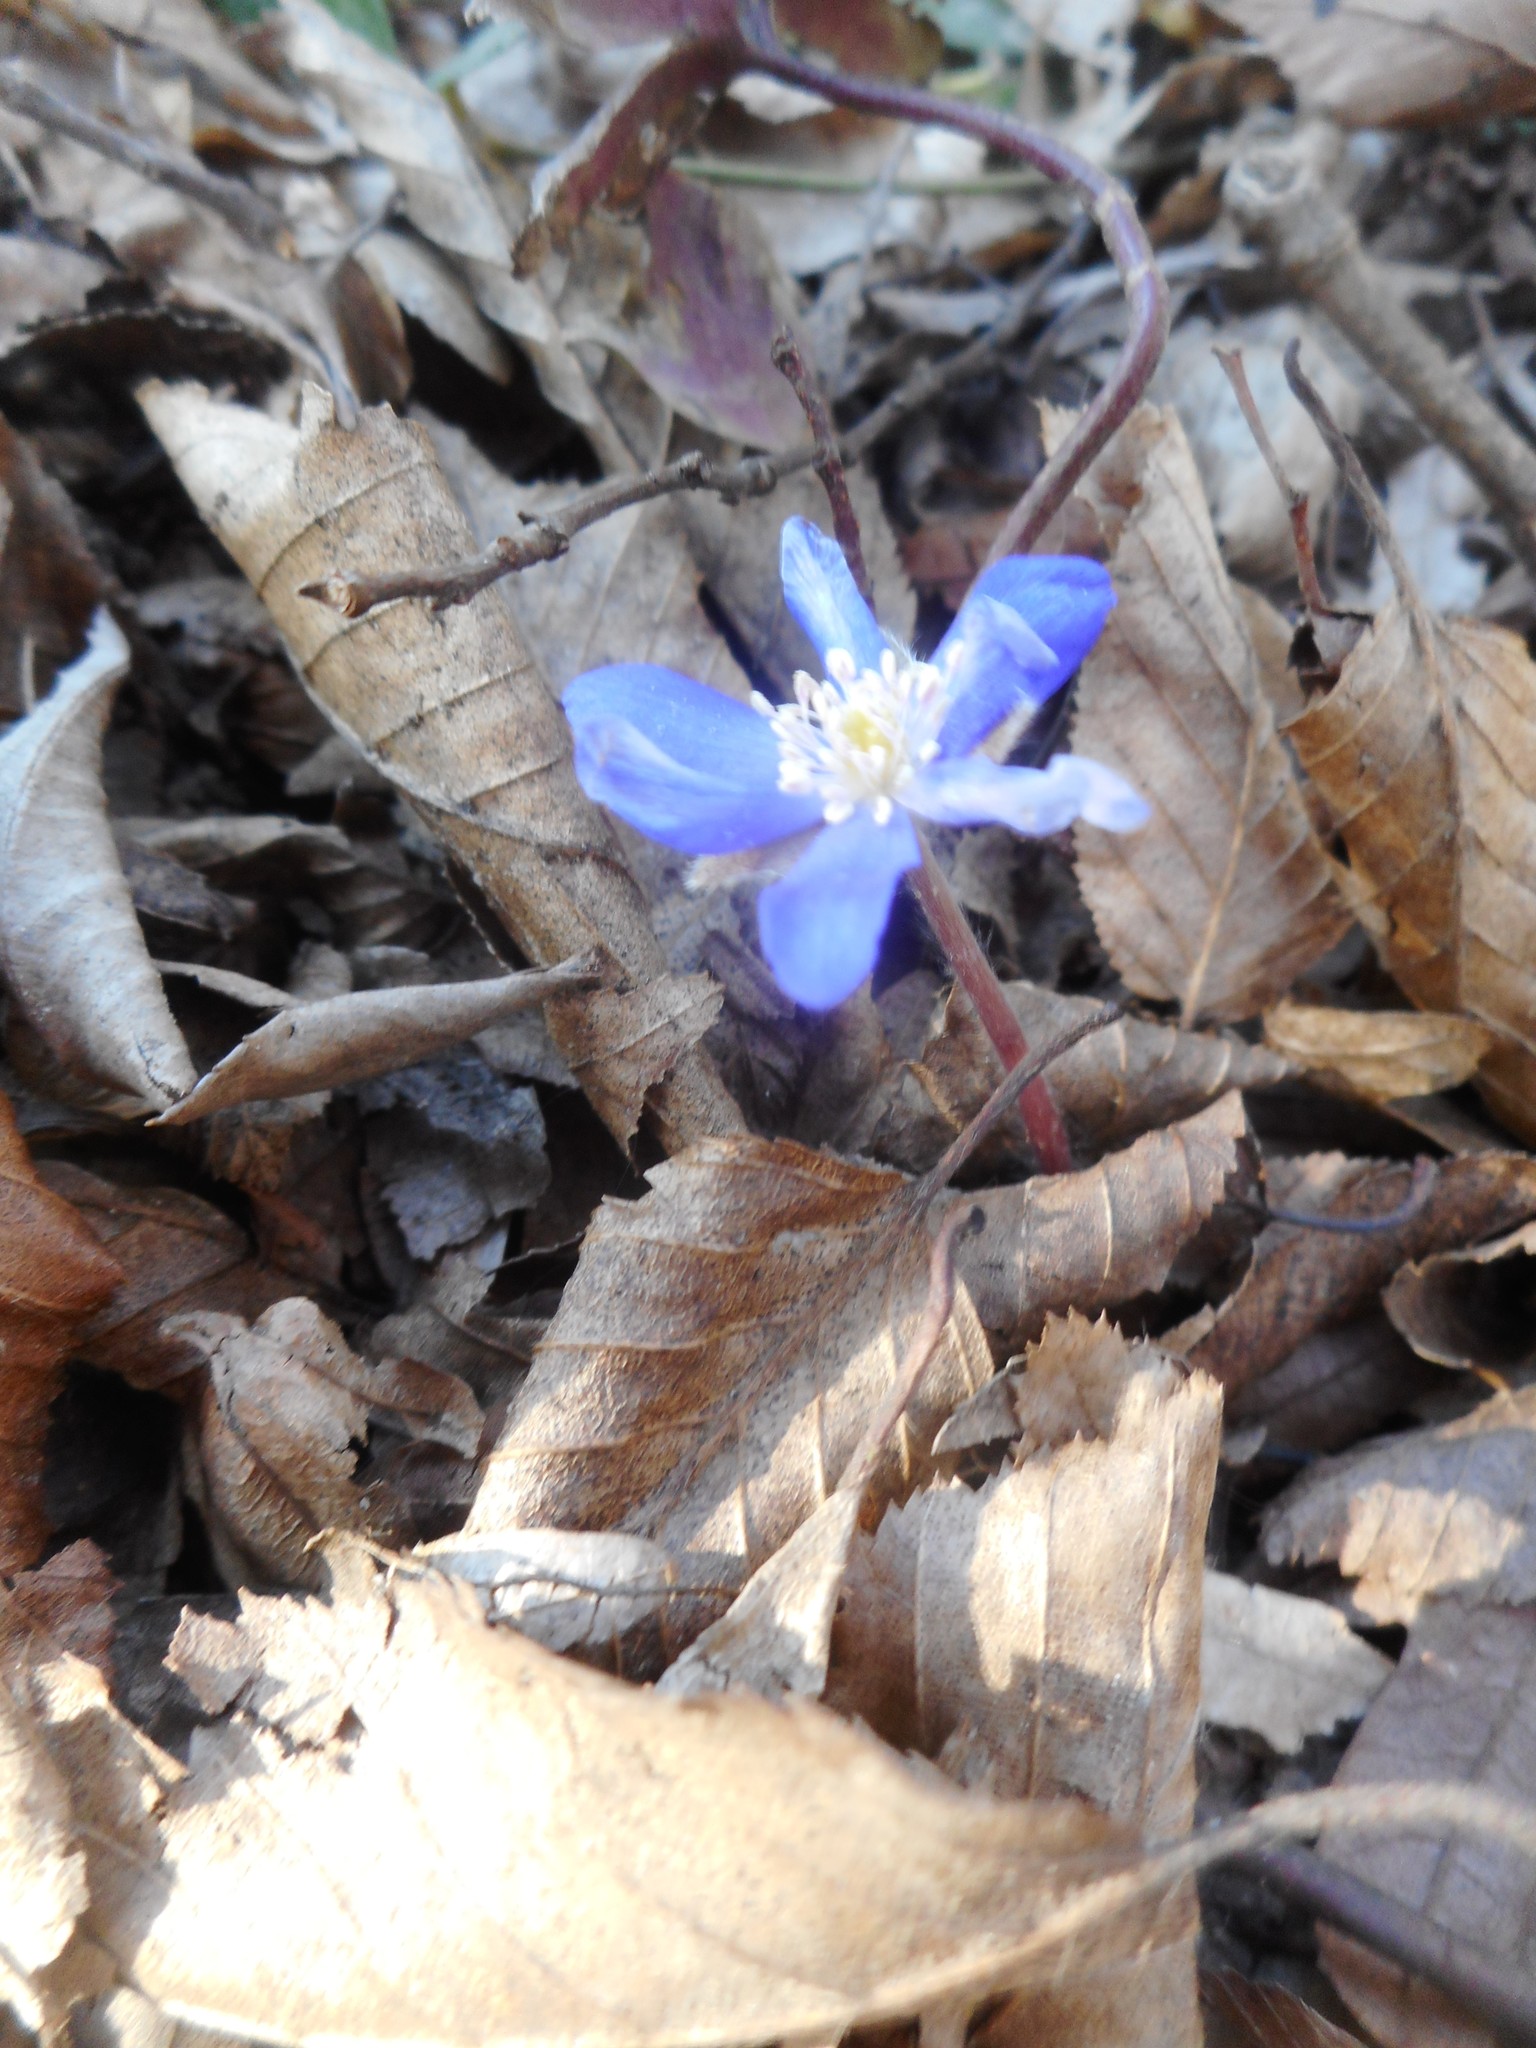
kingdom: Plantae
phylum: Tracheophyta
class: Magnoliopsida
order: Ranunculales
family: Ranunculaceae
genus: Hepatica
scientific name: Hepatica nobilis
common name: Liverleaf
